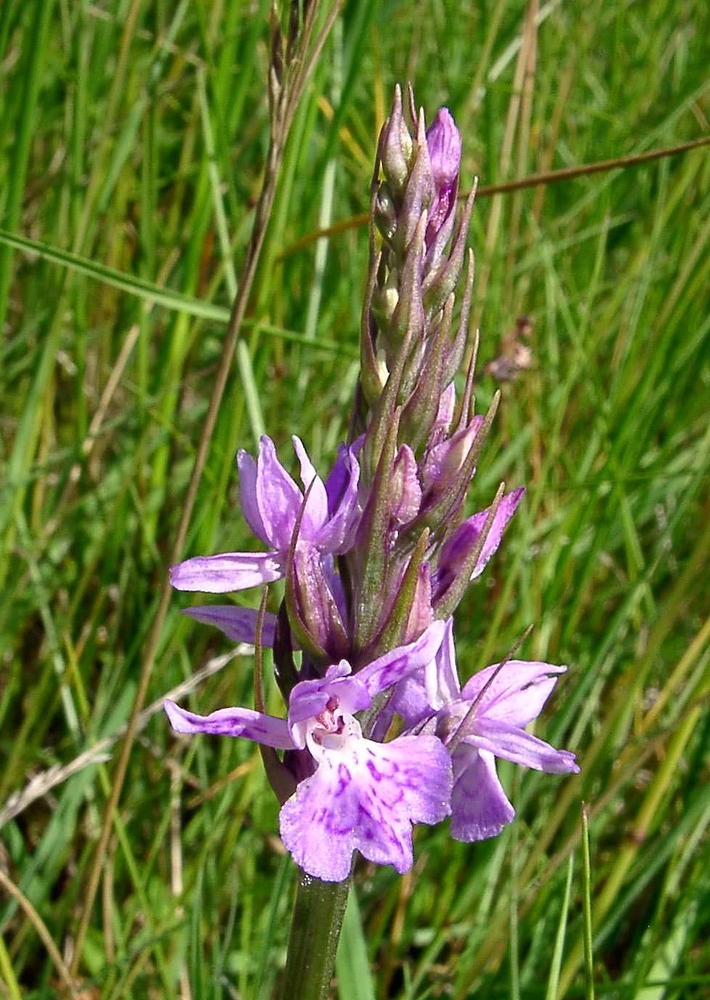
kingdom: Plantae
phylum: Tracheophyta
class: Liliopsida
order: Asparagales
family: Orchidaceae
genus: Dactylorhiza
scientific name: Dactylorhiza maculata
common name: Heath spotted-orchid
